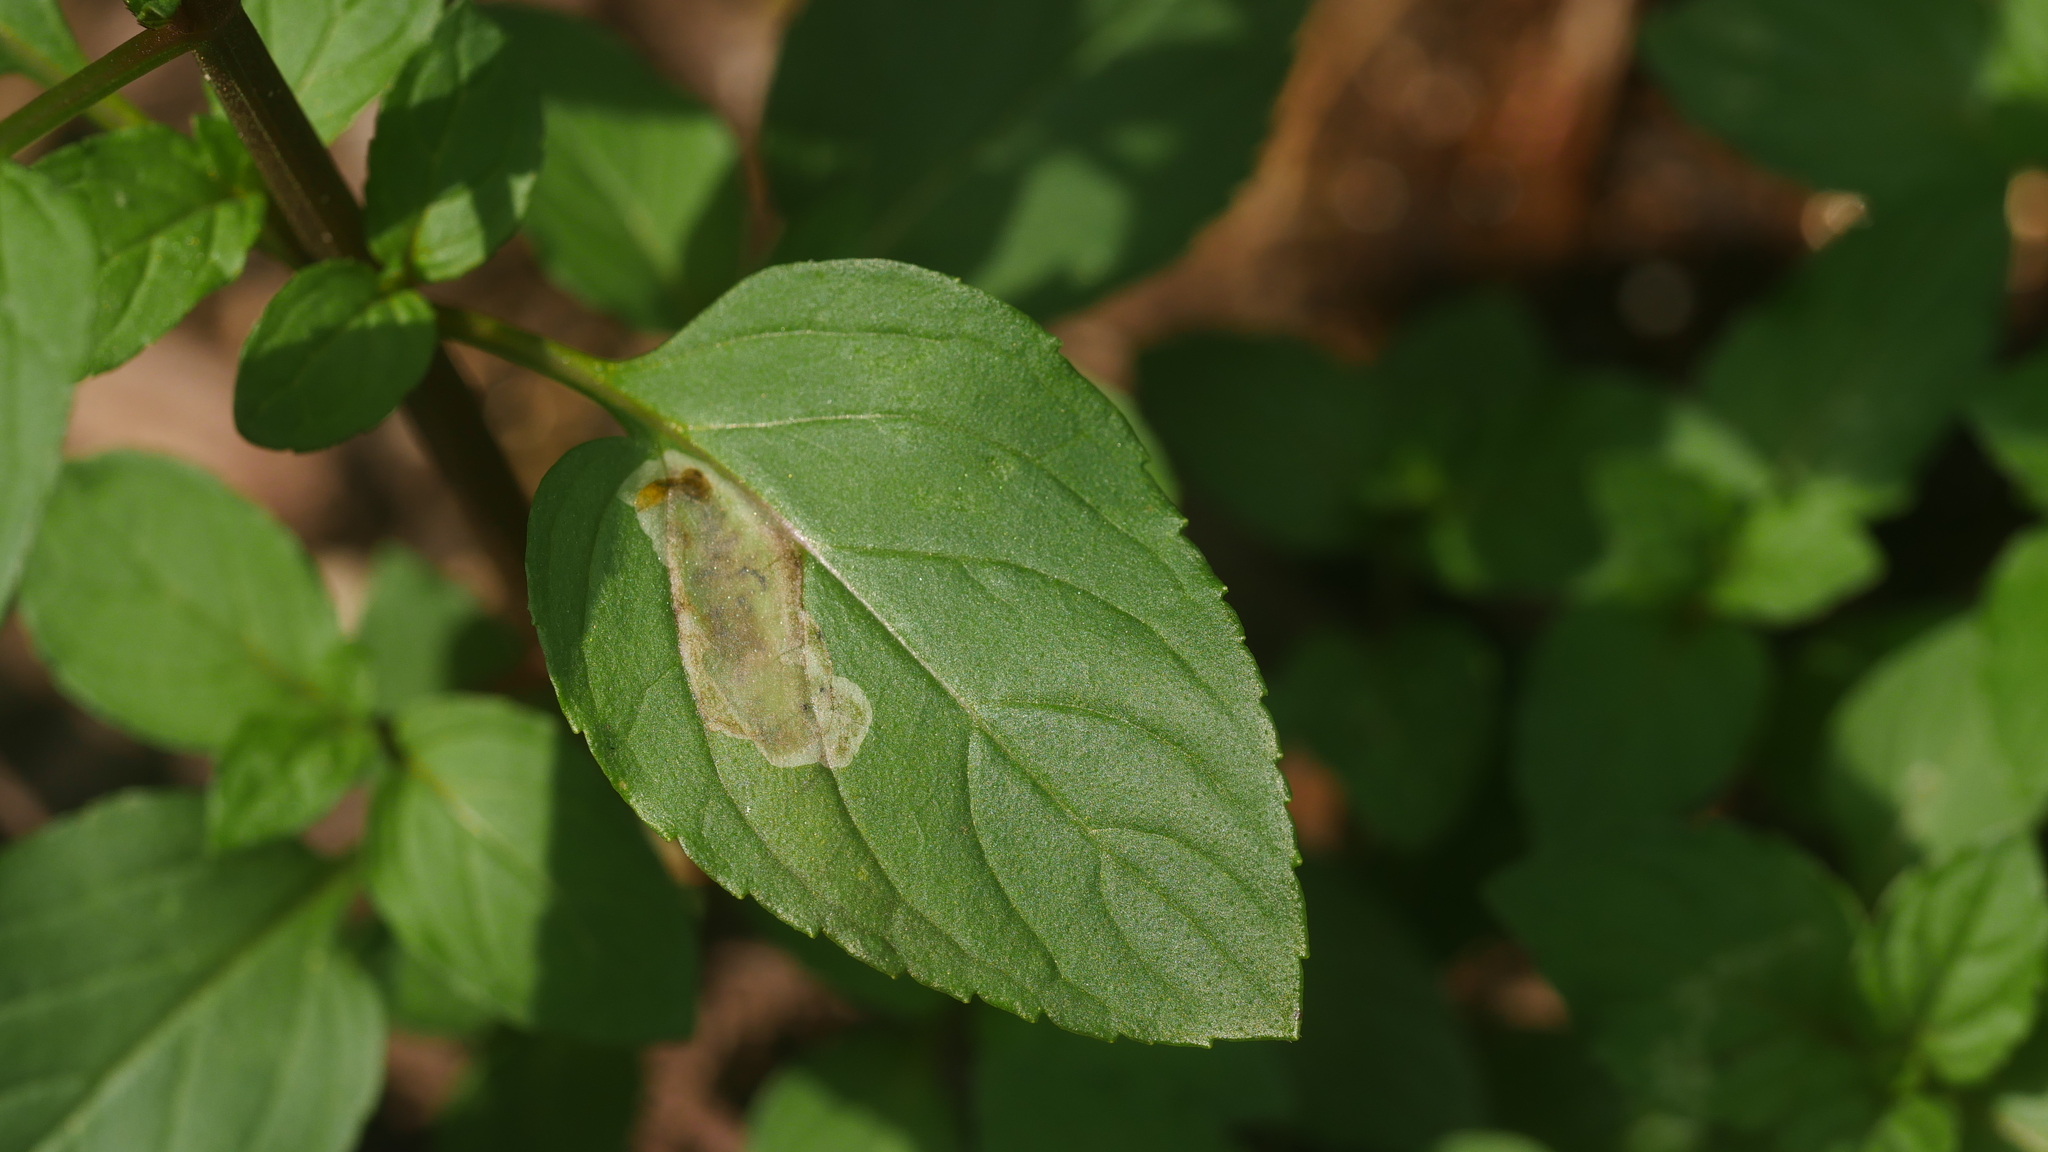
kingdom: Animalia
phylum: Arthropoda
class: Insecta
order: Diptera
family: Agromyzidae
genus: Calycomyza
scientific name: Calycomyza menthae
